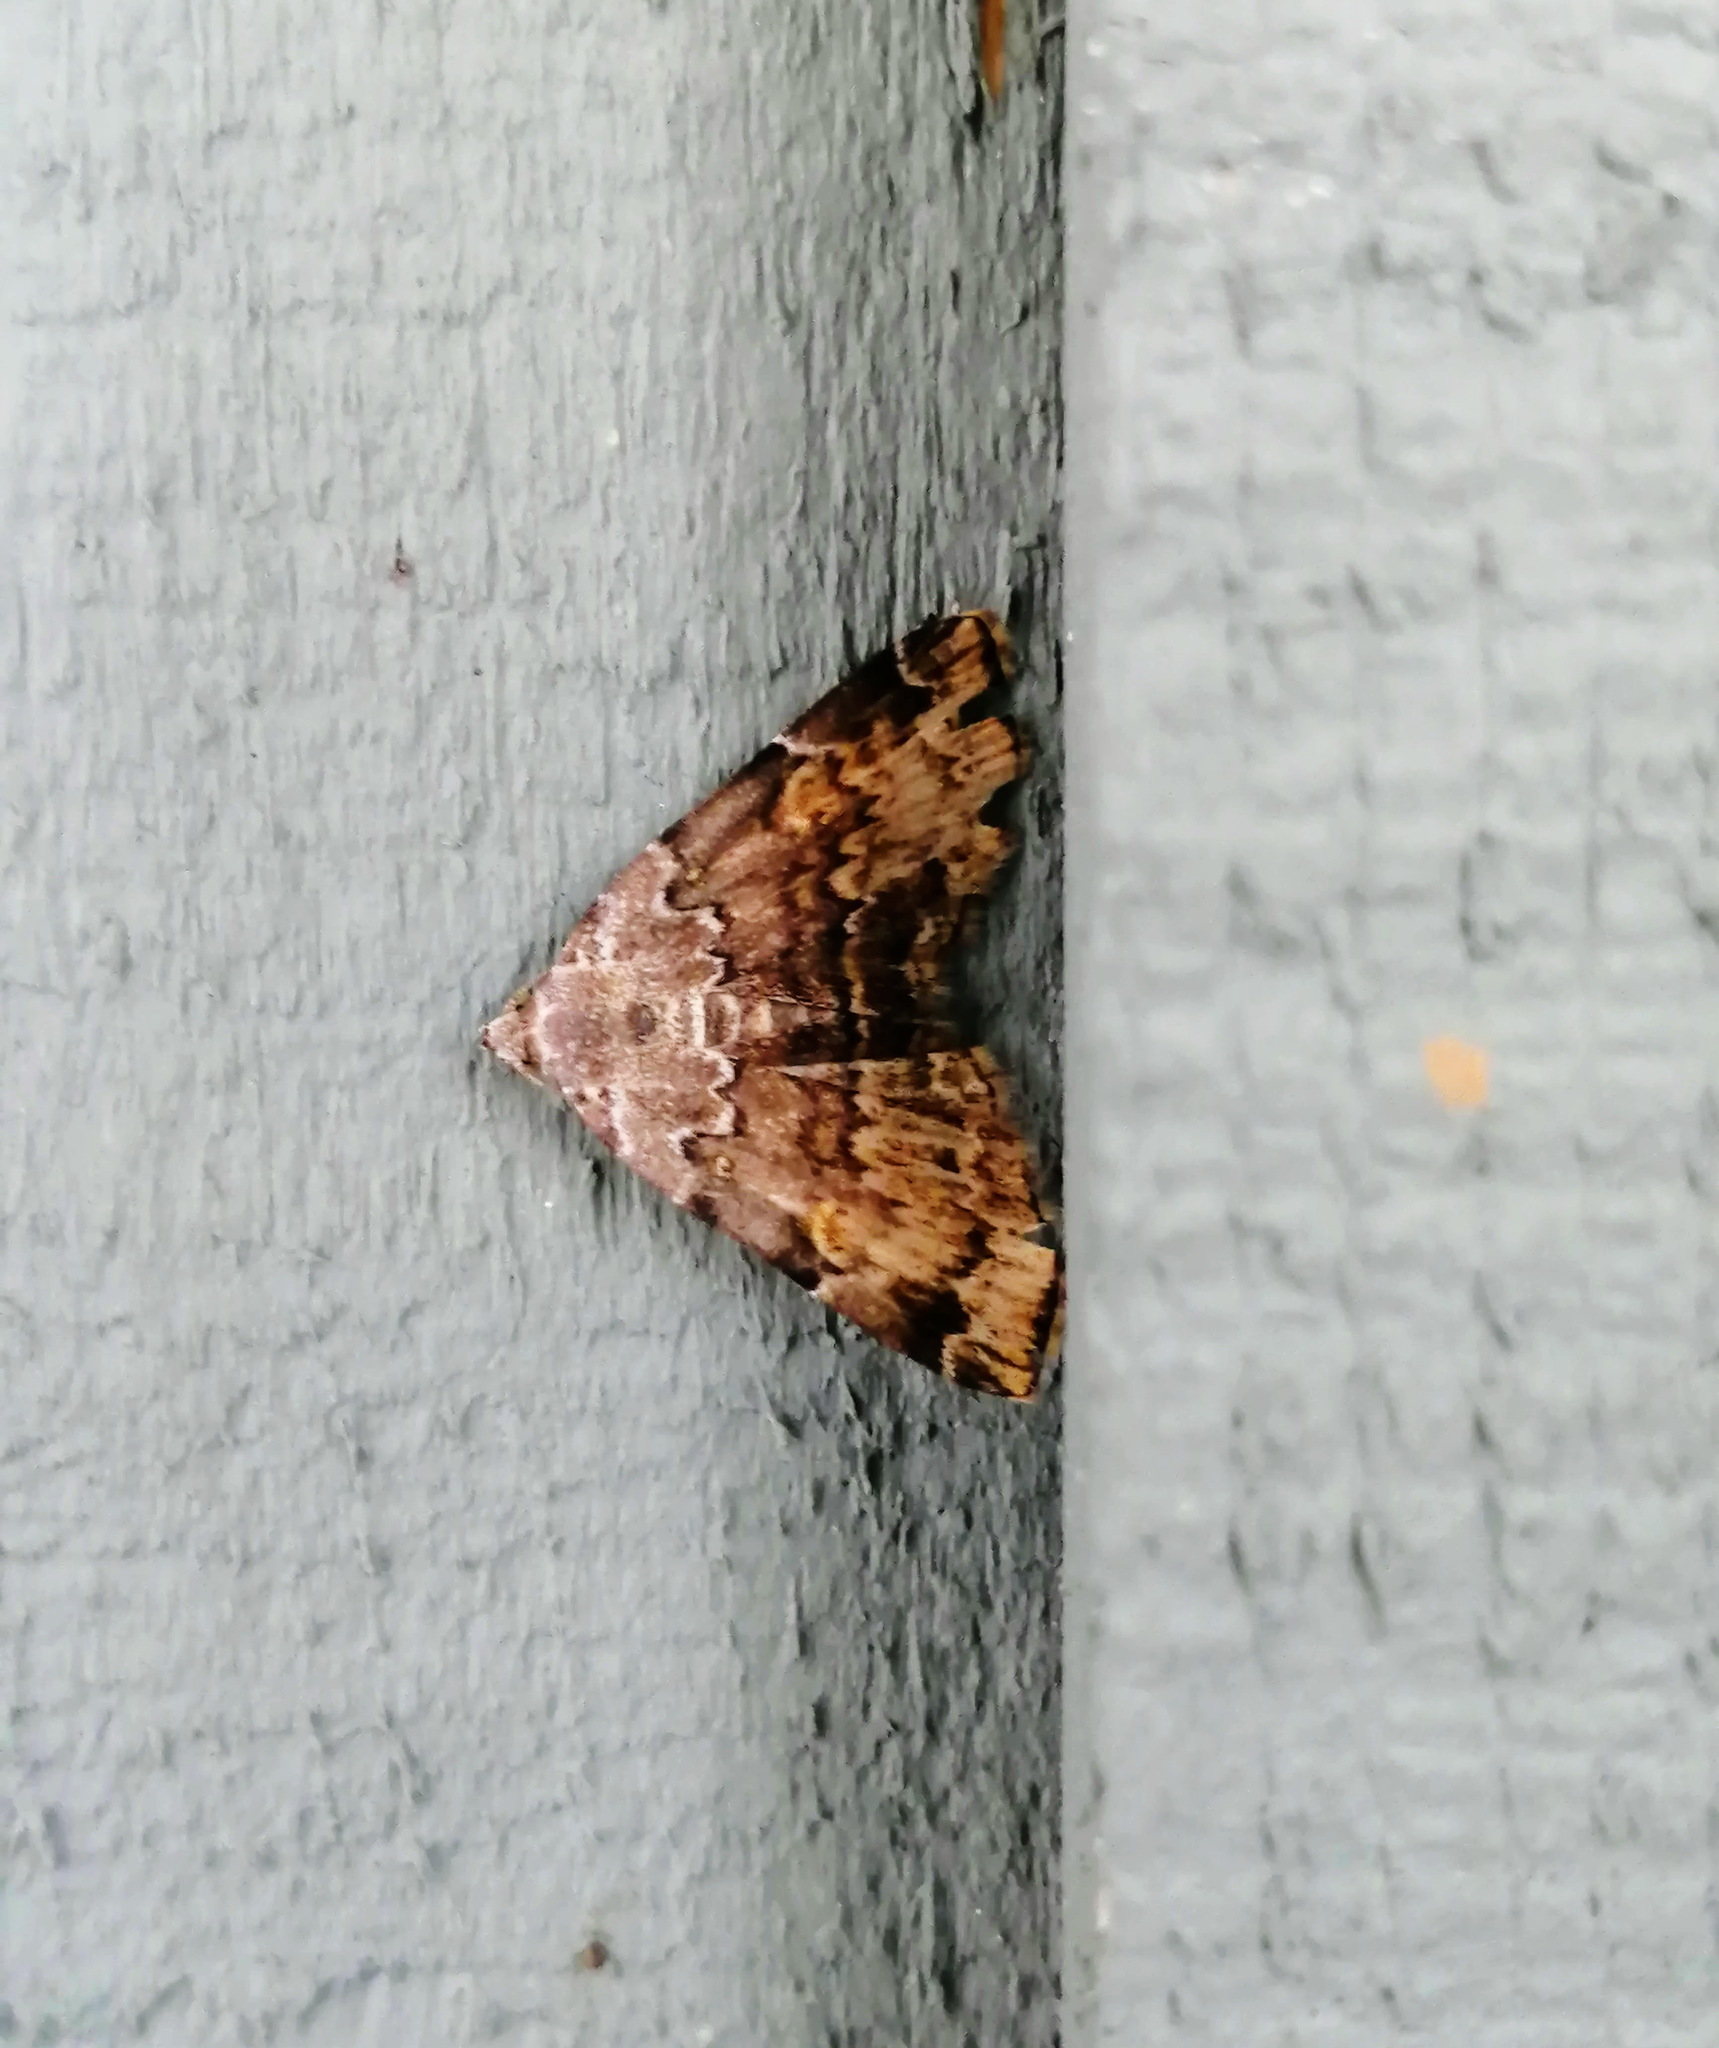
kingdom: Animalia
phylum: Arthropoda
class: Insecta
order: Lepidoptera
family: Erebidae
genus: Idia
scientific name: Idia americalis
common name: American idia moth
